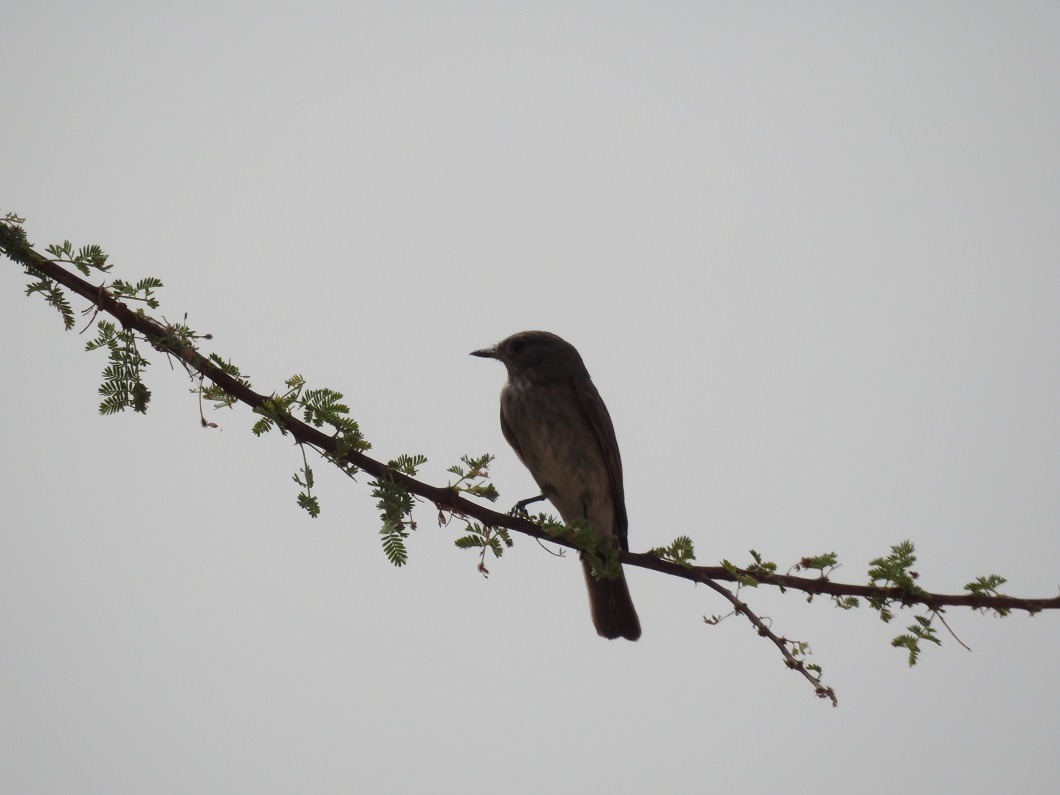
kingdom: Animalia
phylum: Chordata
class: Aves
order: Passeriformes
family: Muscicapidae
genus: Muscicapa
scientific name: Muscicapa striata
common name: Spotted flycatcher
